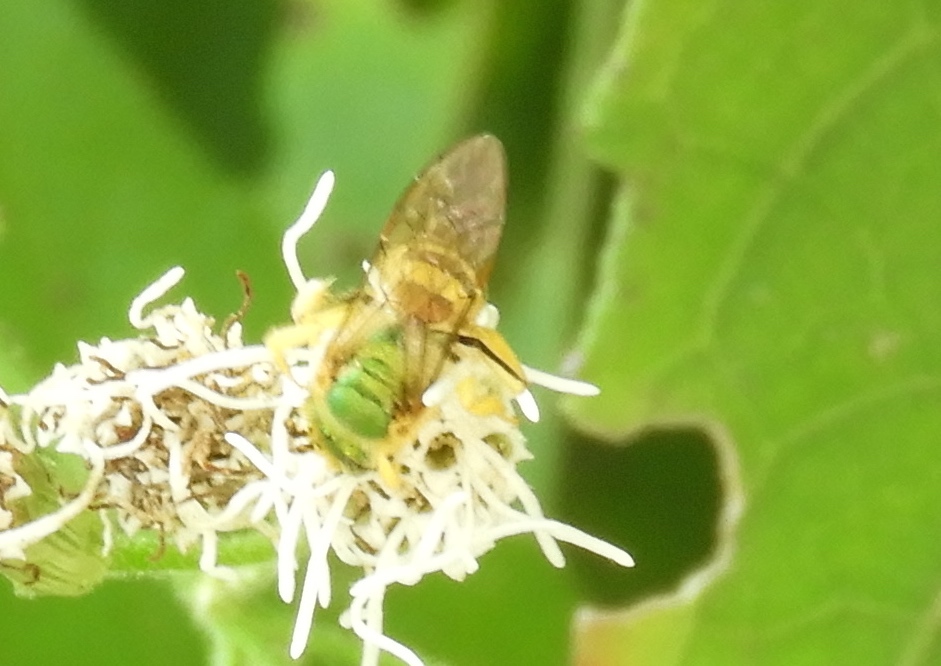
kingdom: Animalia
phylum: Arthropoda
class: Insecta
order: Hymenoptera
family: Halictidae
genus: Agapostemon
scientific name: Agapostemon
